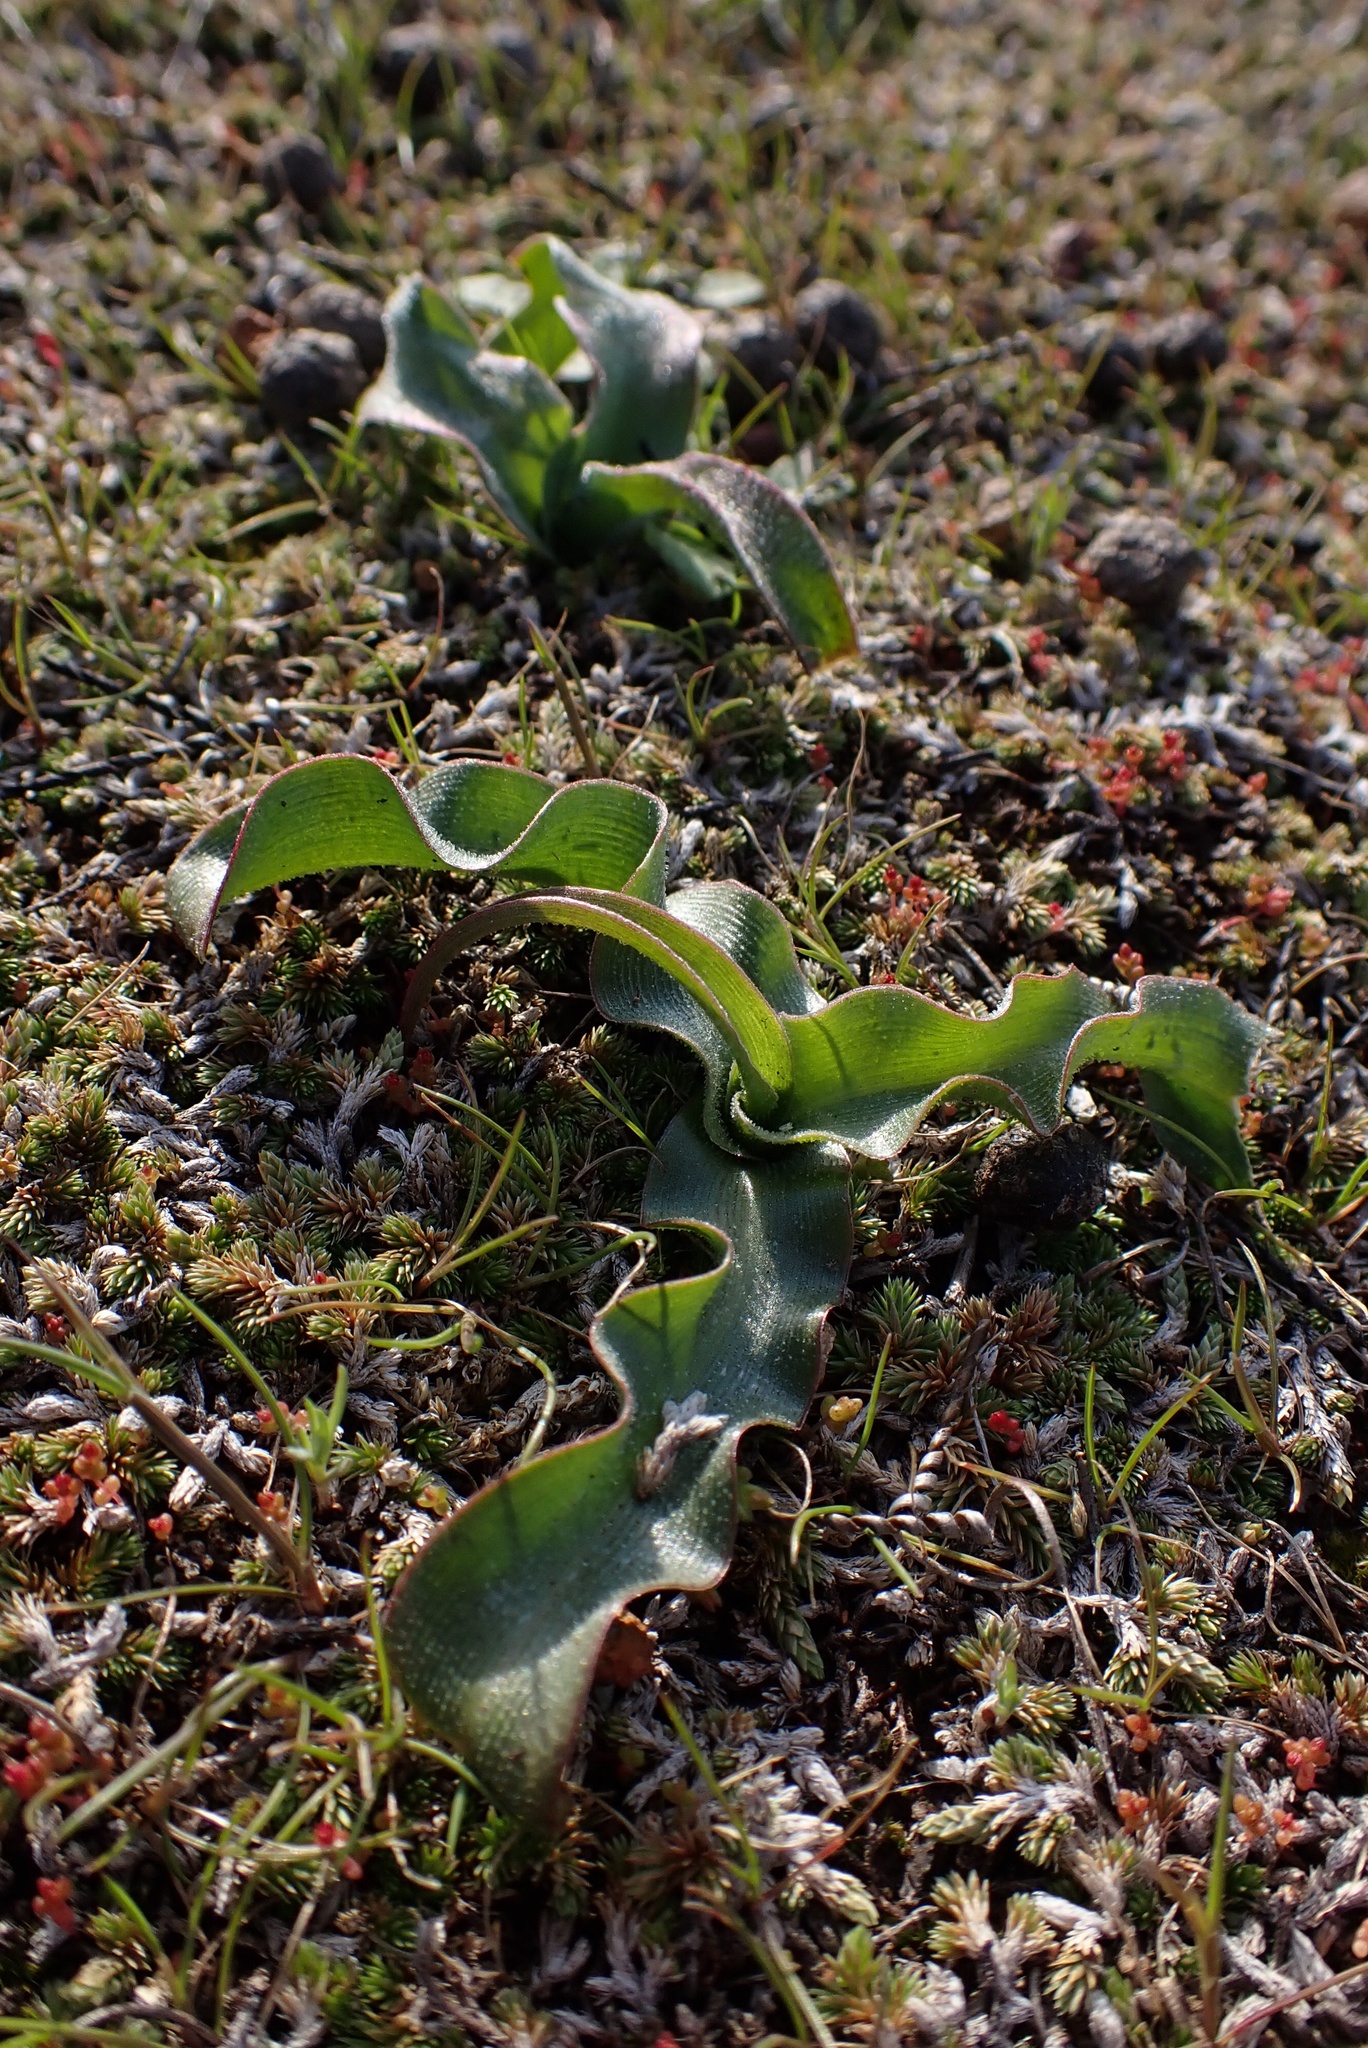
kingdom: Plantae
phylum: Tracheophyta
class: Liliopsida
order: Asparagales
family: Asparagaceae
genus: Hooveria
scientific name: Hooveria parviflora
